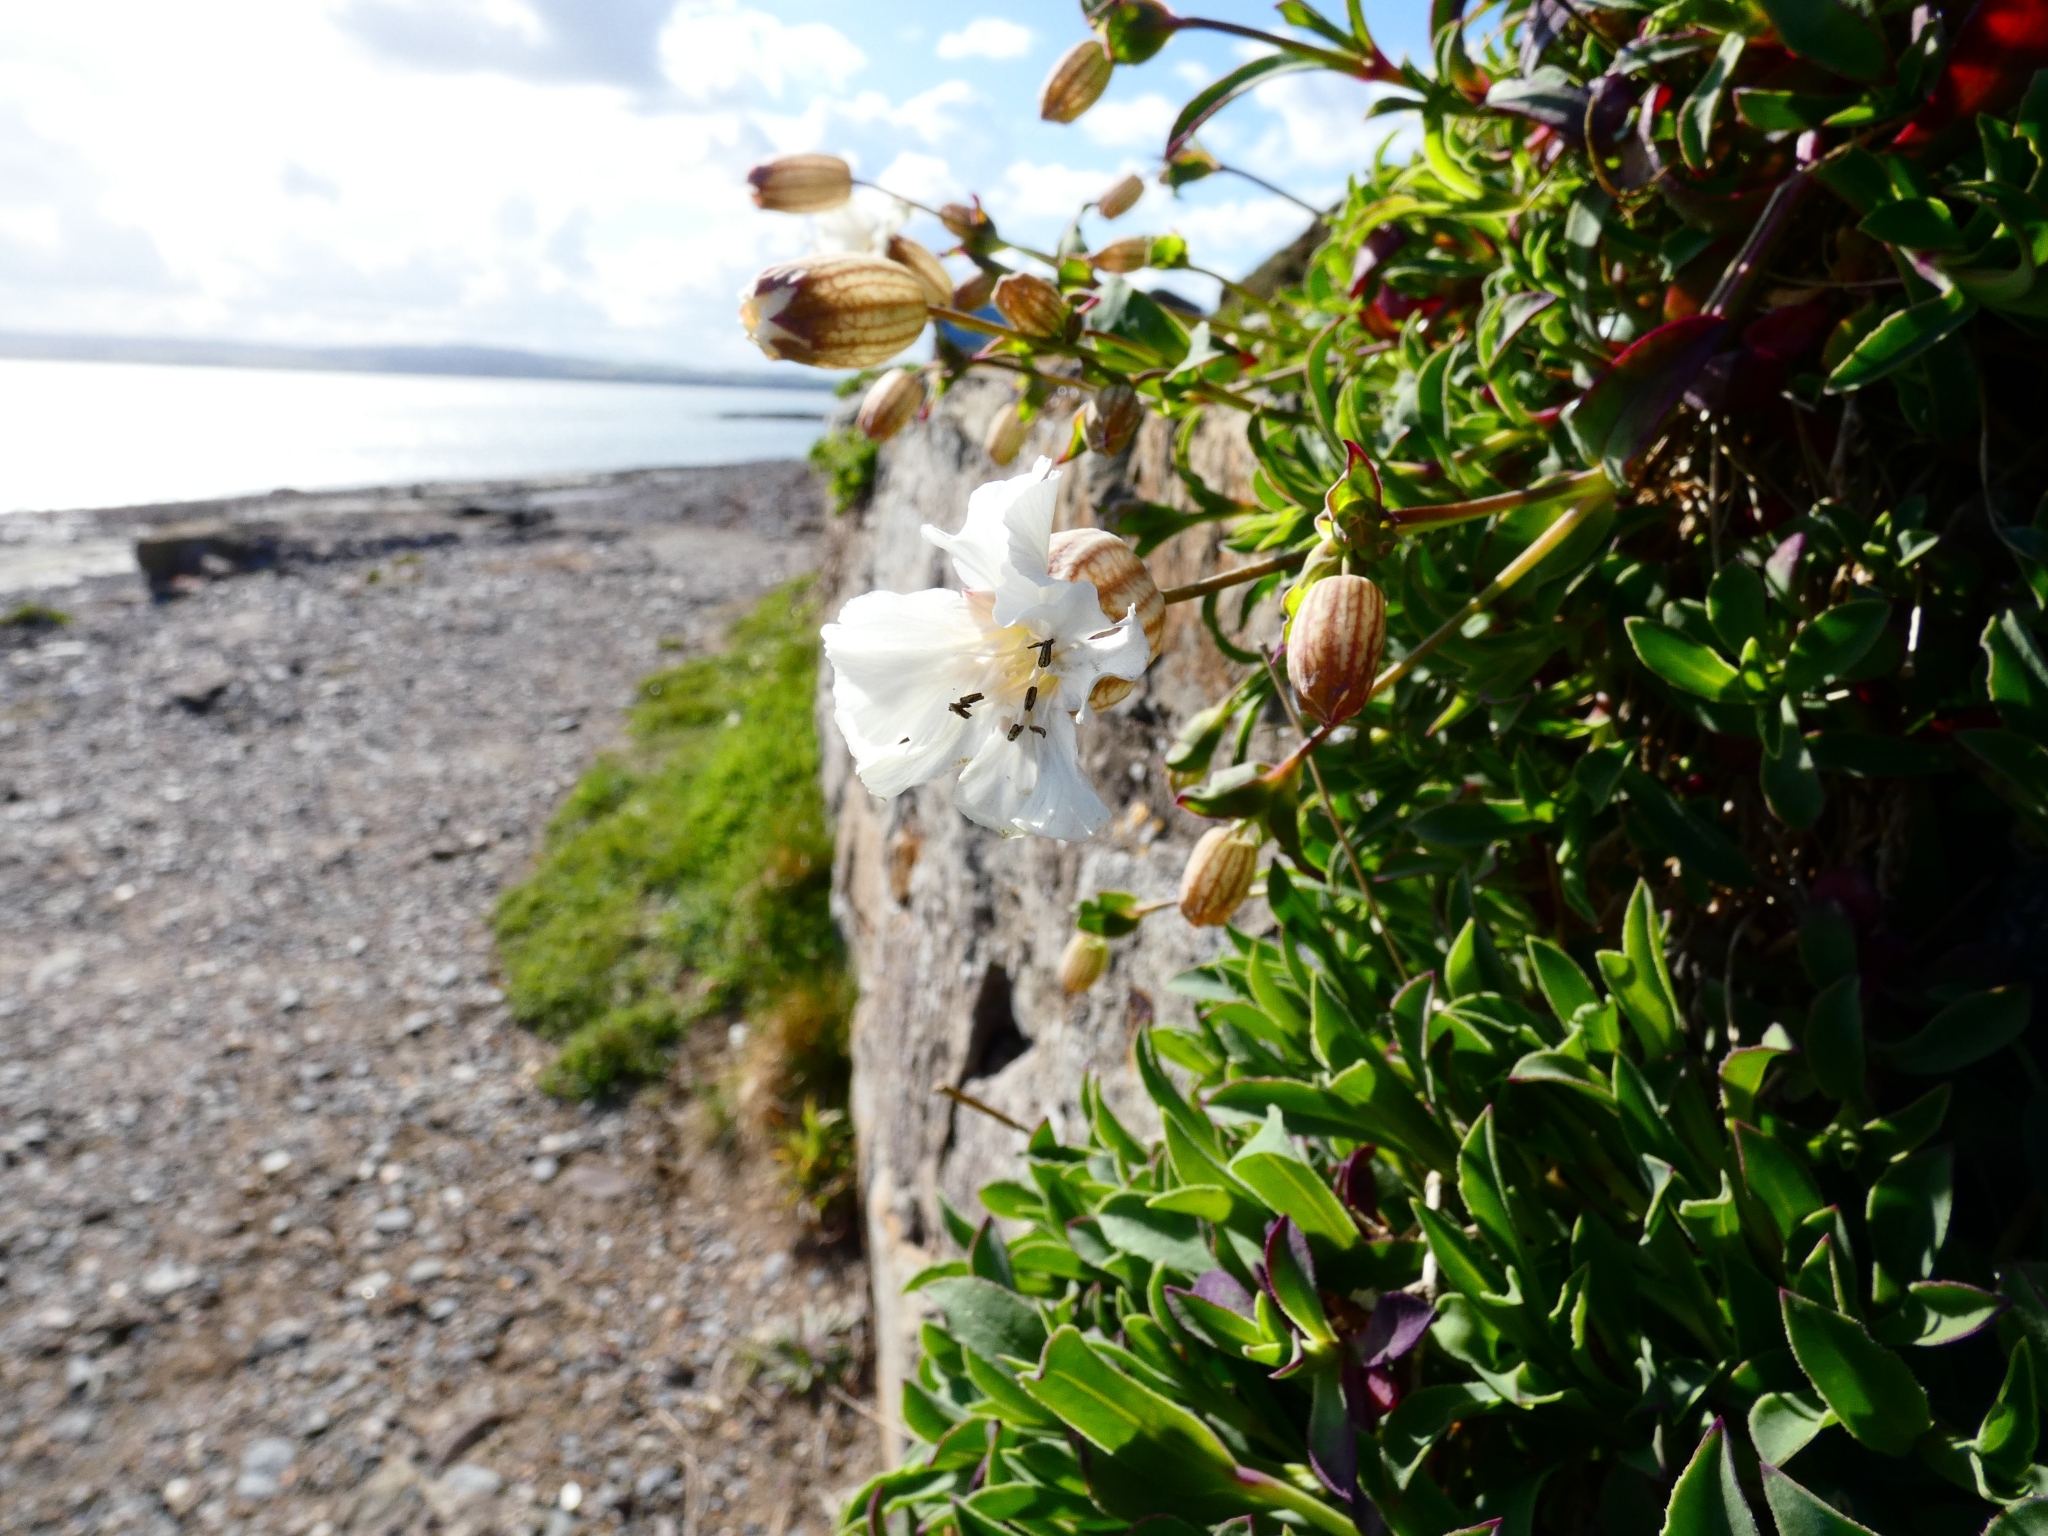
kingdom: Plantae
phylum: Tracheophyta
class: Magnoliopsida
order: Caryophyllales
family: Caryophyllaceae
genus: Silene
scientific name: Silene uniflora
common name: Sea campion
